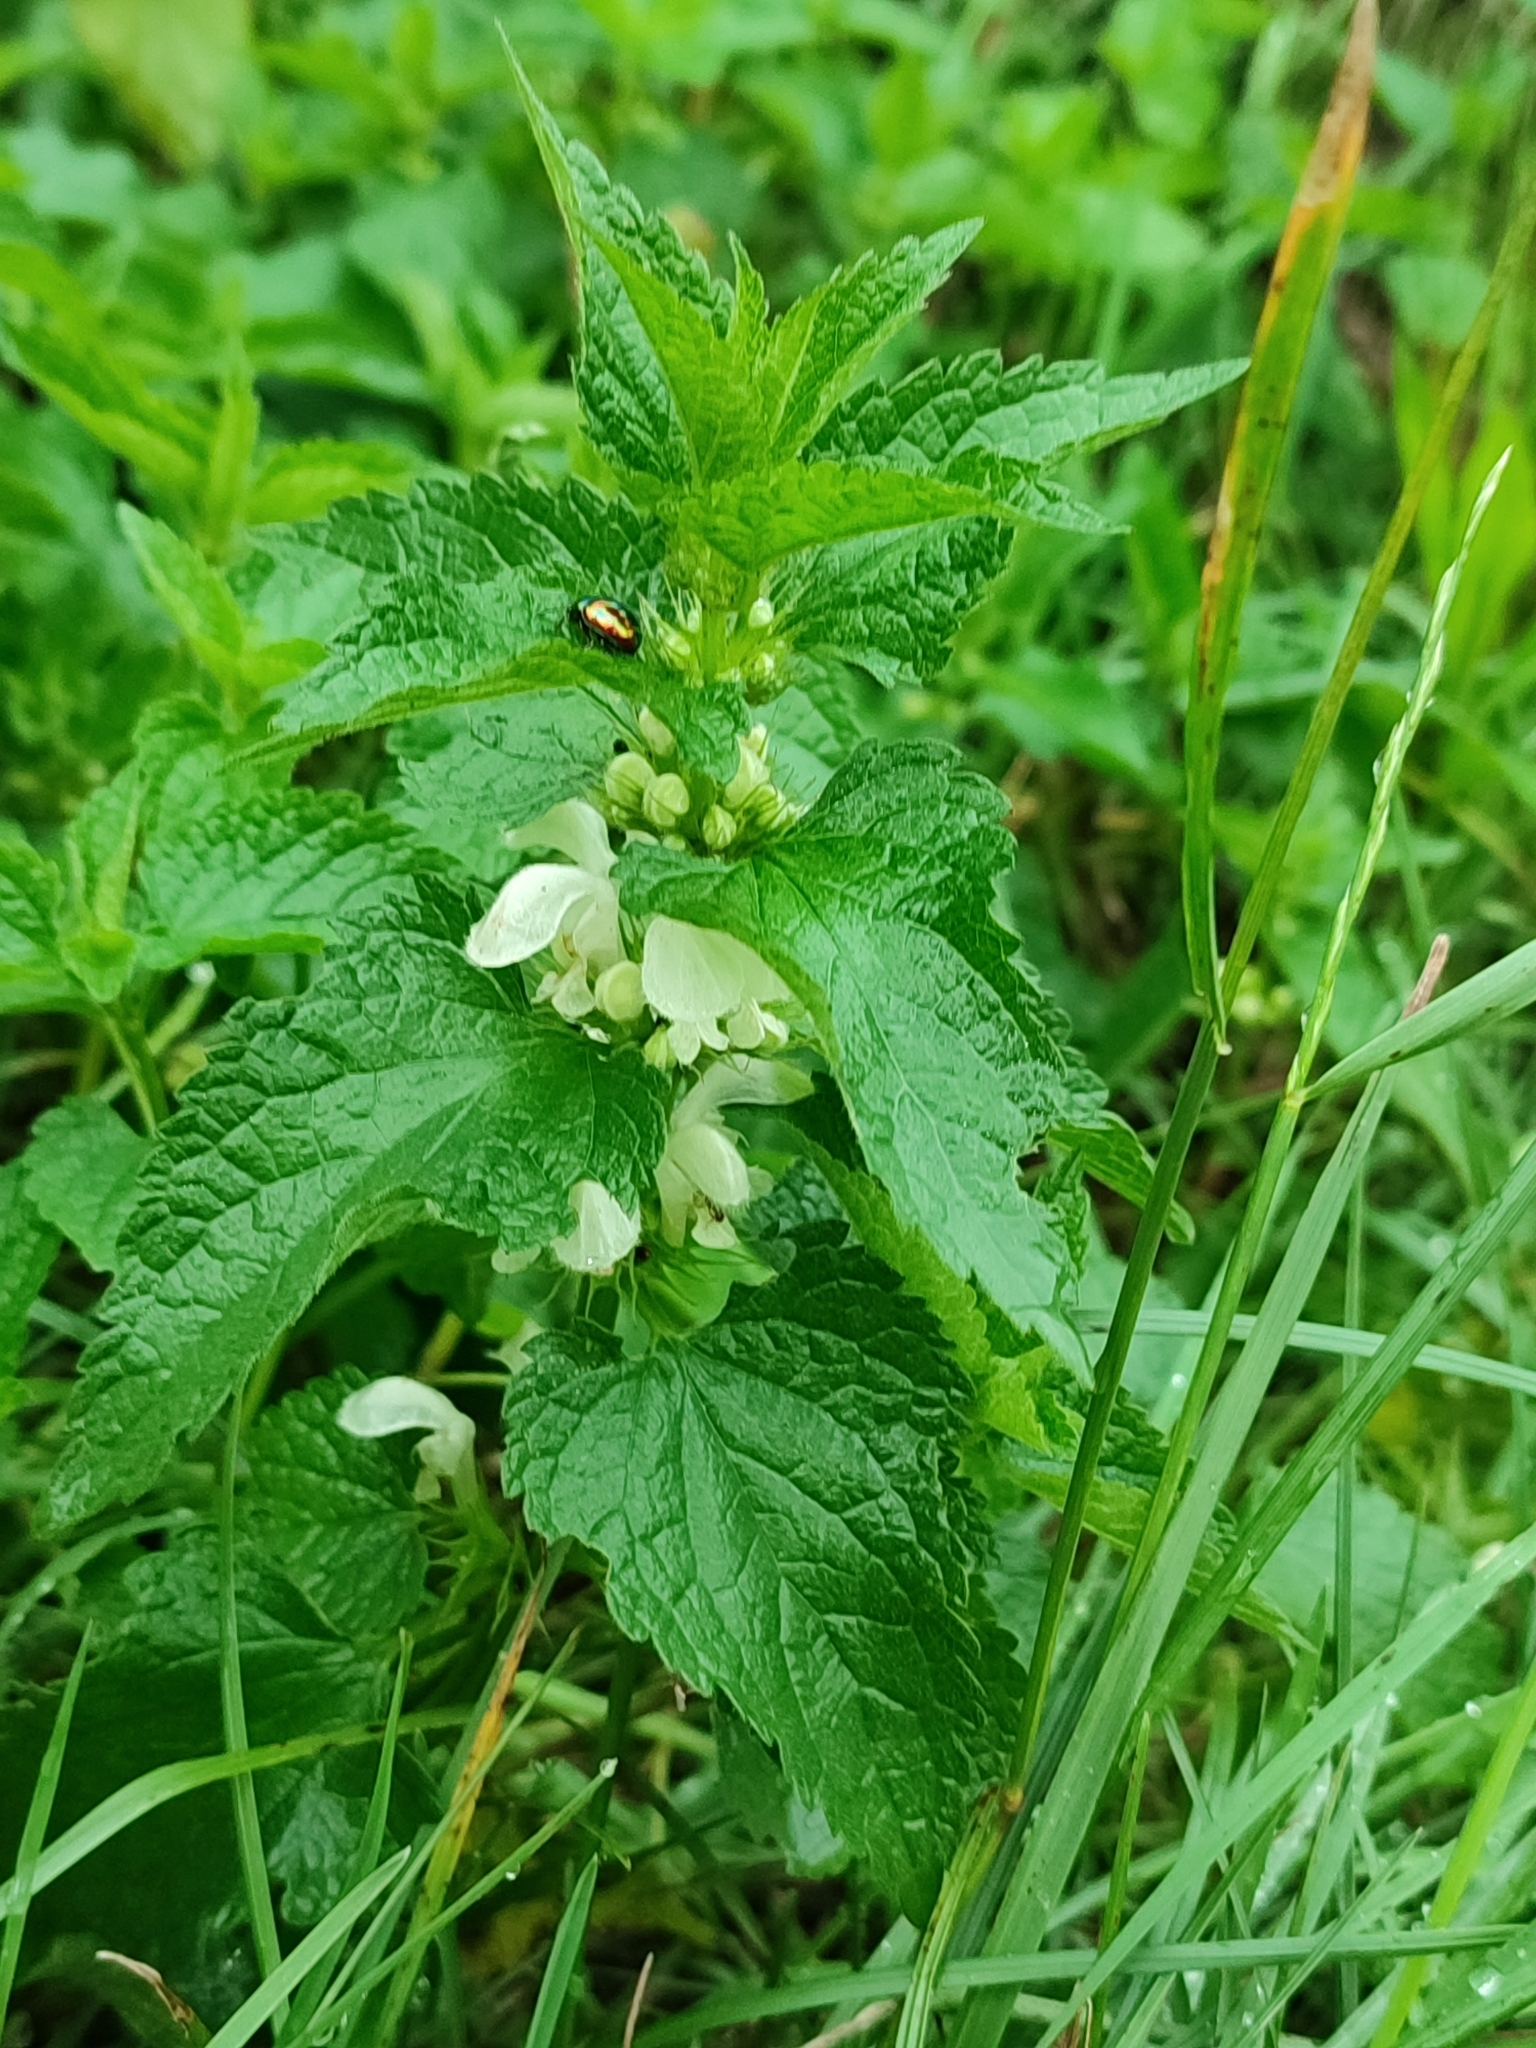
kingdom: Plantae
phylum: Tracheophyta
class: Magnoliopsida
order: Lamiales
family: Lamiaceae
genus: Lamium
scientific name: Lamium album
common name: White dead-nettle
